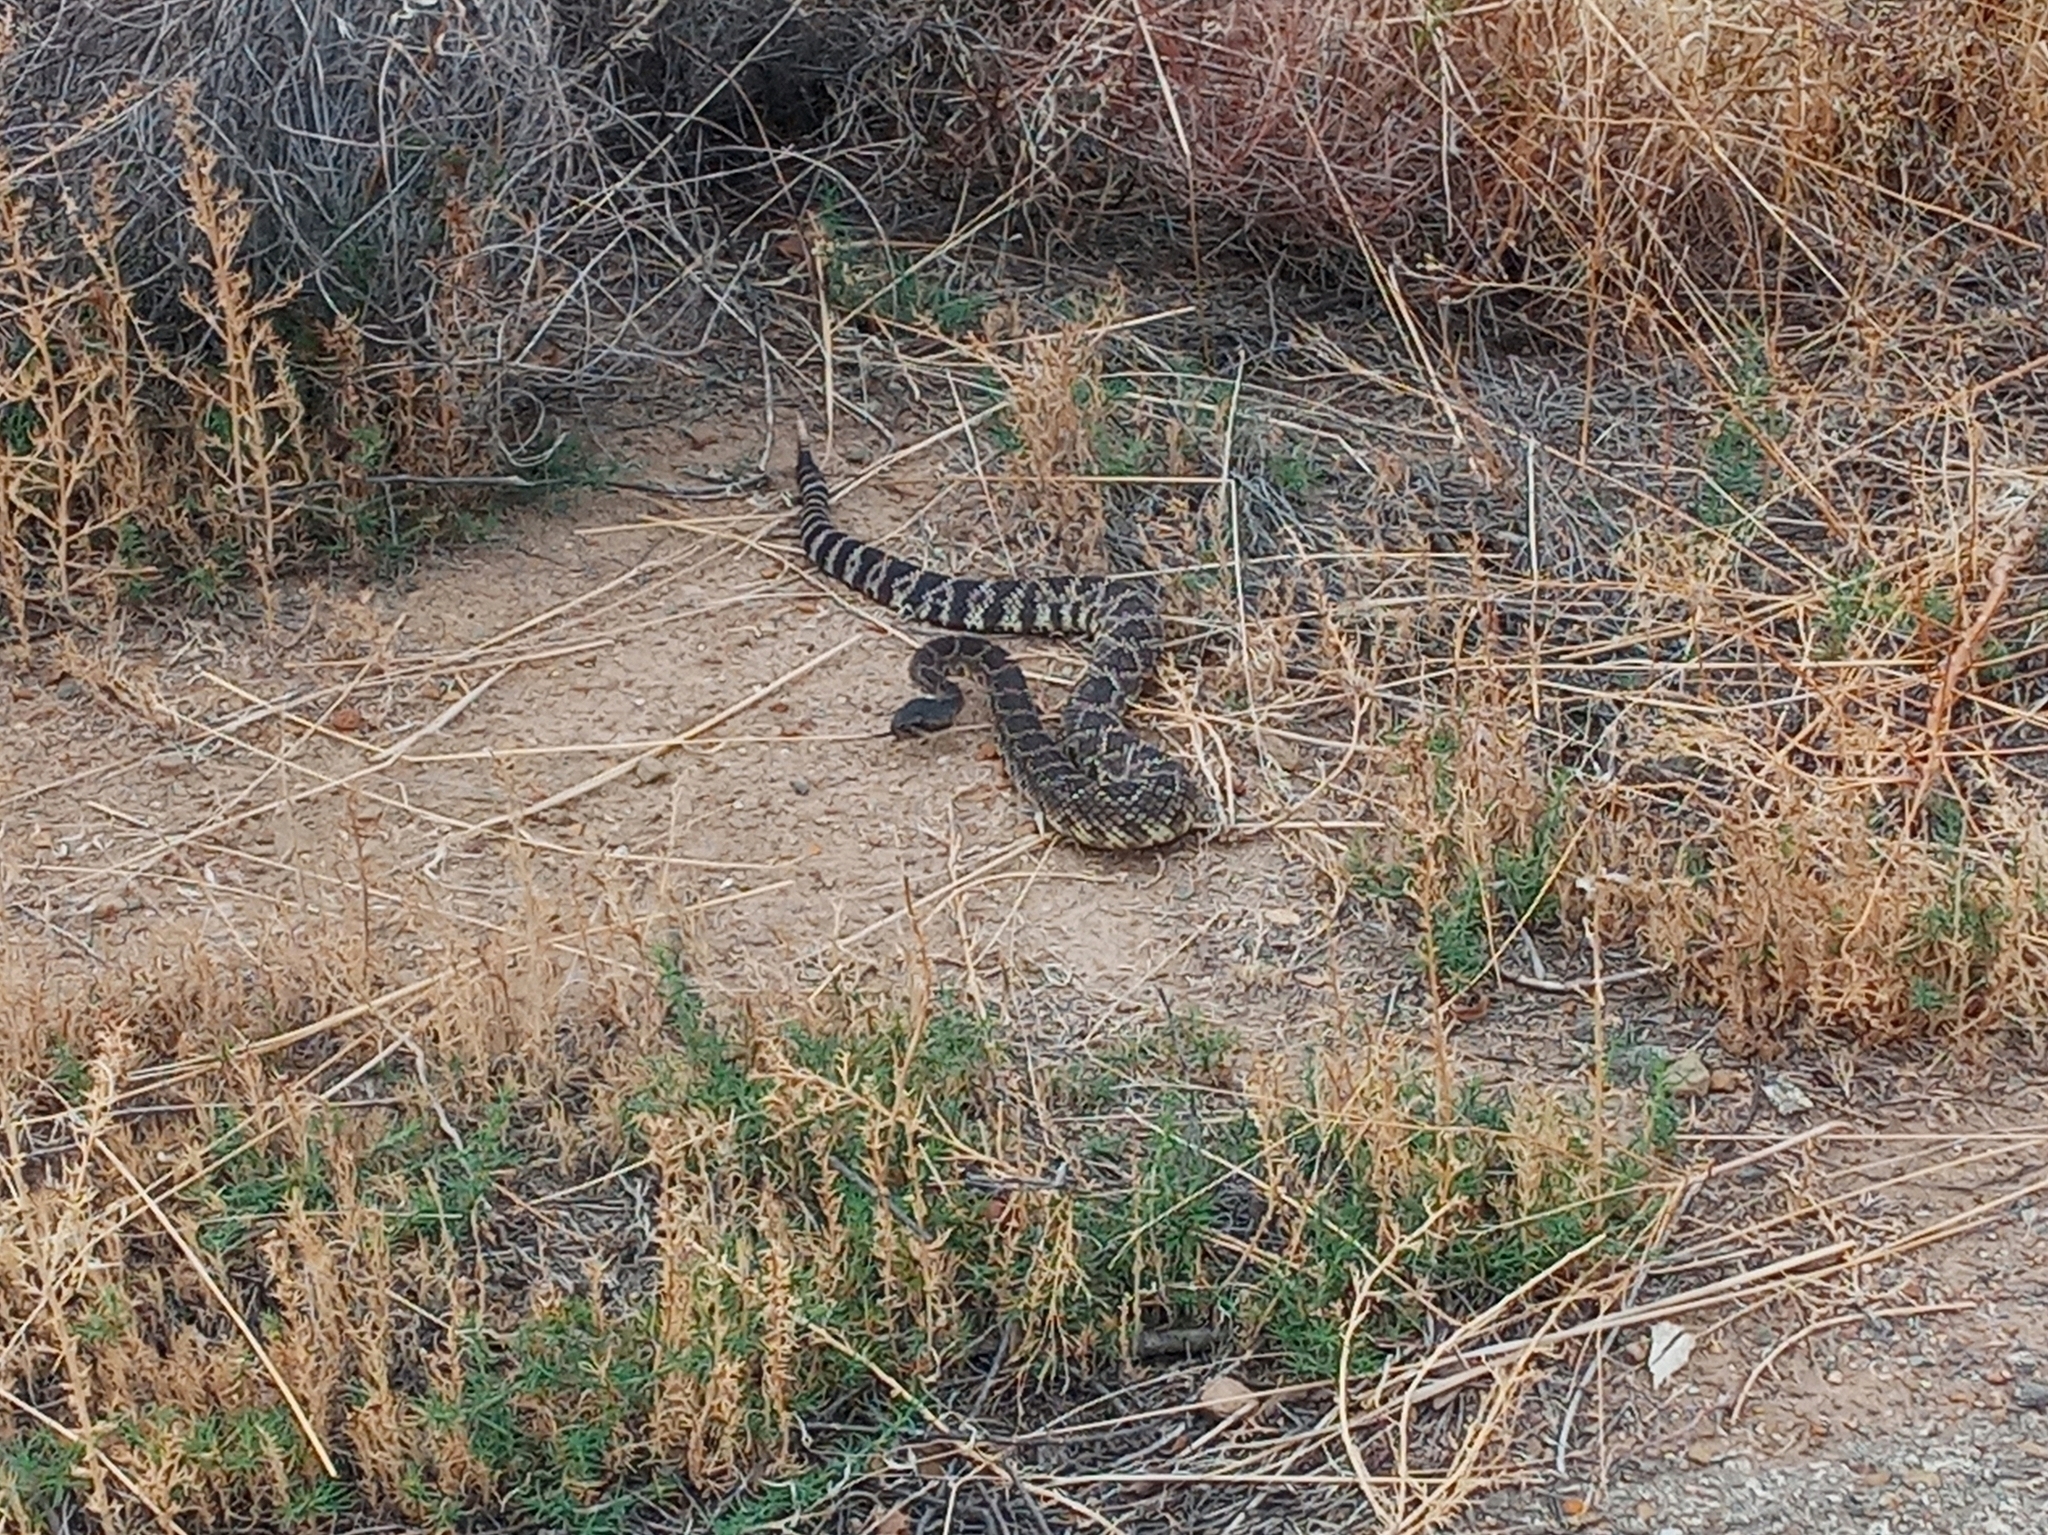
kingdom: Animalia
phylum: Chordata
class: Squamata
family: Viperidae
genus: Crotalus
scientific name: Crotalus oreganus
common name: Abyssus
